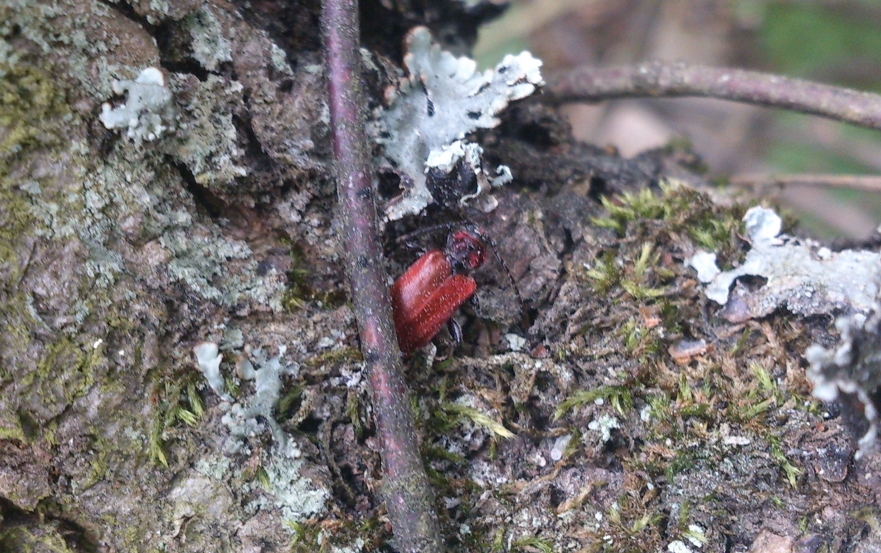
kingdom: Animalia
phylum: Arthropoda
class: Insecta
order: Coleoptera
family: Cerambycidae
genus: Pyrrhidium
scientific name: Pyrrhidium sanguineum
